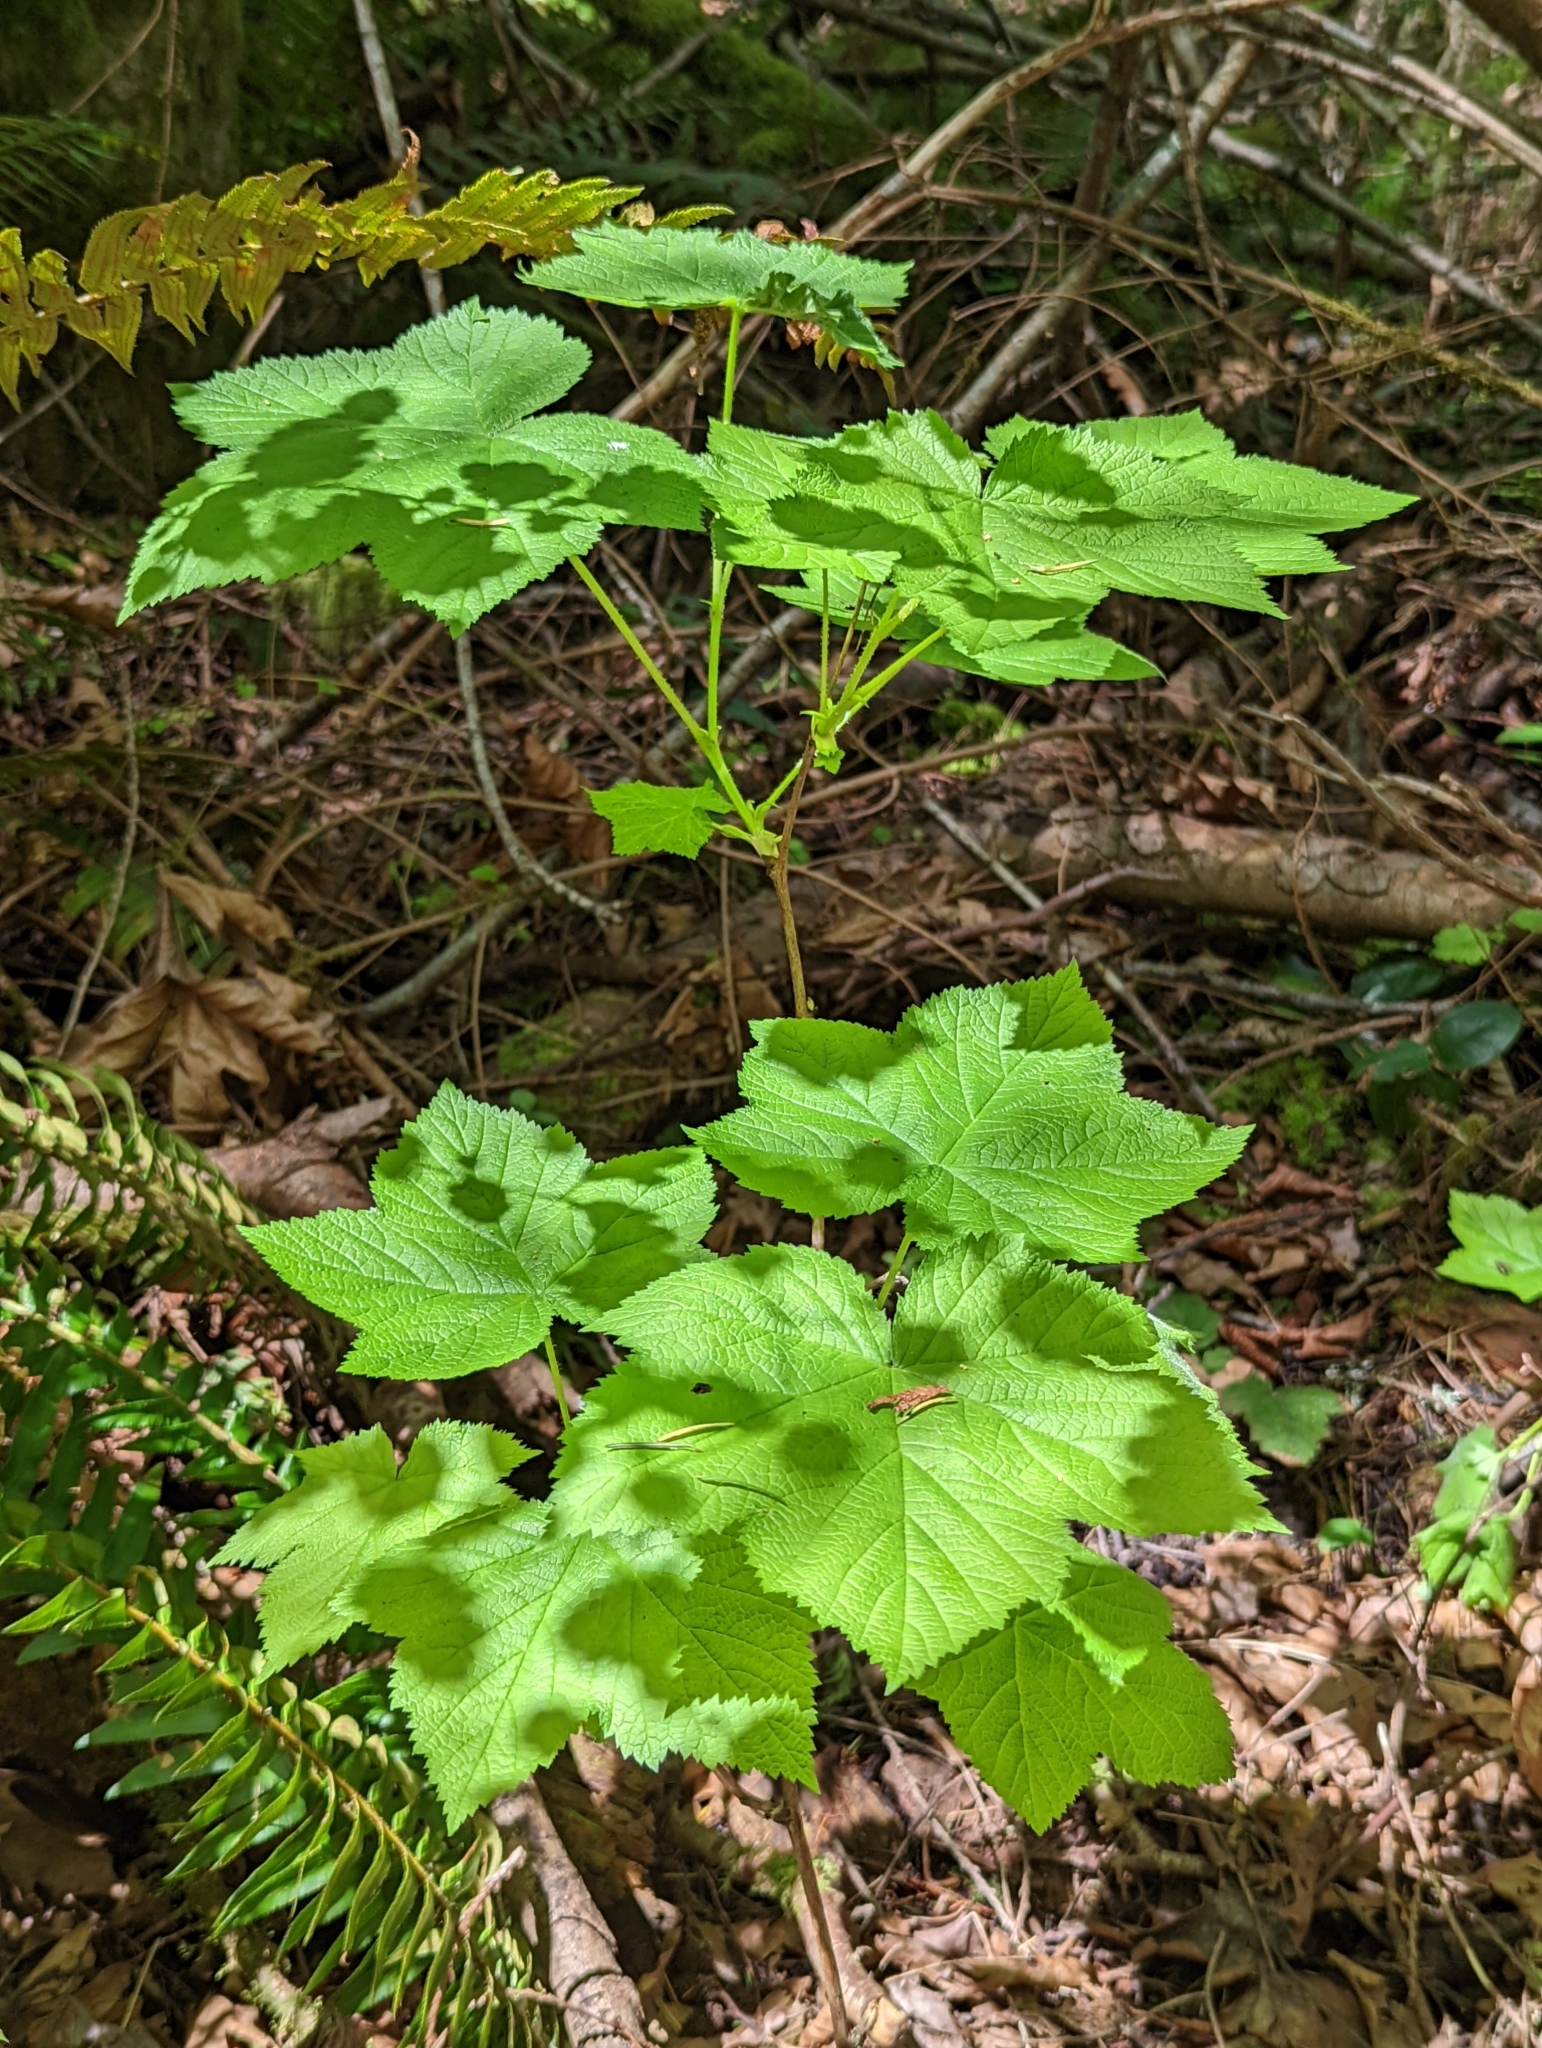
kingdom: Plantae
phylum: Tracheophyta
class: Magnoliopsida
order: Rosales
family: Rosaceae
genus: Rubus
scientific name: Rubus parviflorus
